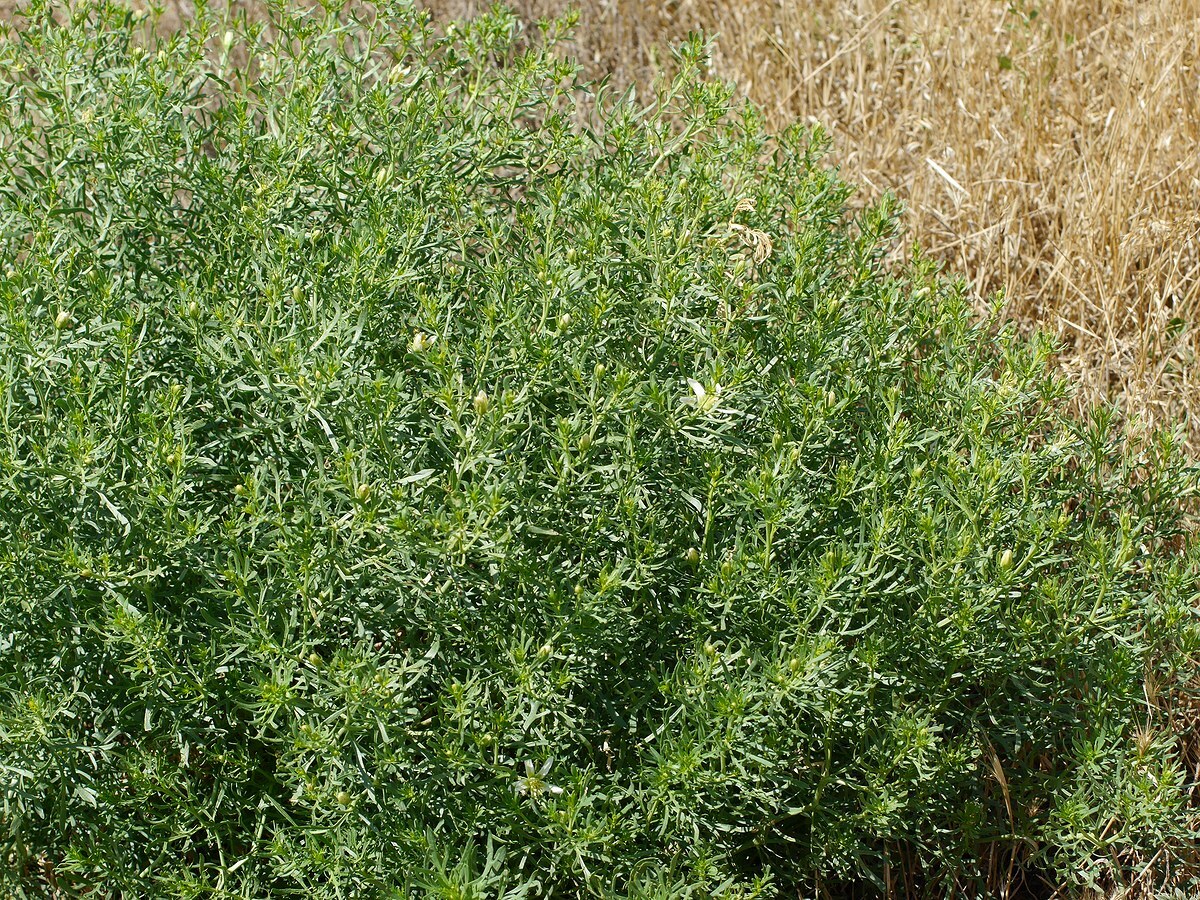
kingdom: Plantae
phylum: Tracheophyta
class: Magnoliopsida
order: Sapindales
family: Tetradiclidaceae
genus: Peganum
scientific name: Peganum harmala
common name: Harmal peganum
